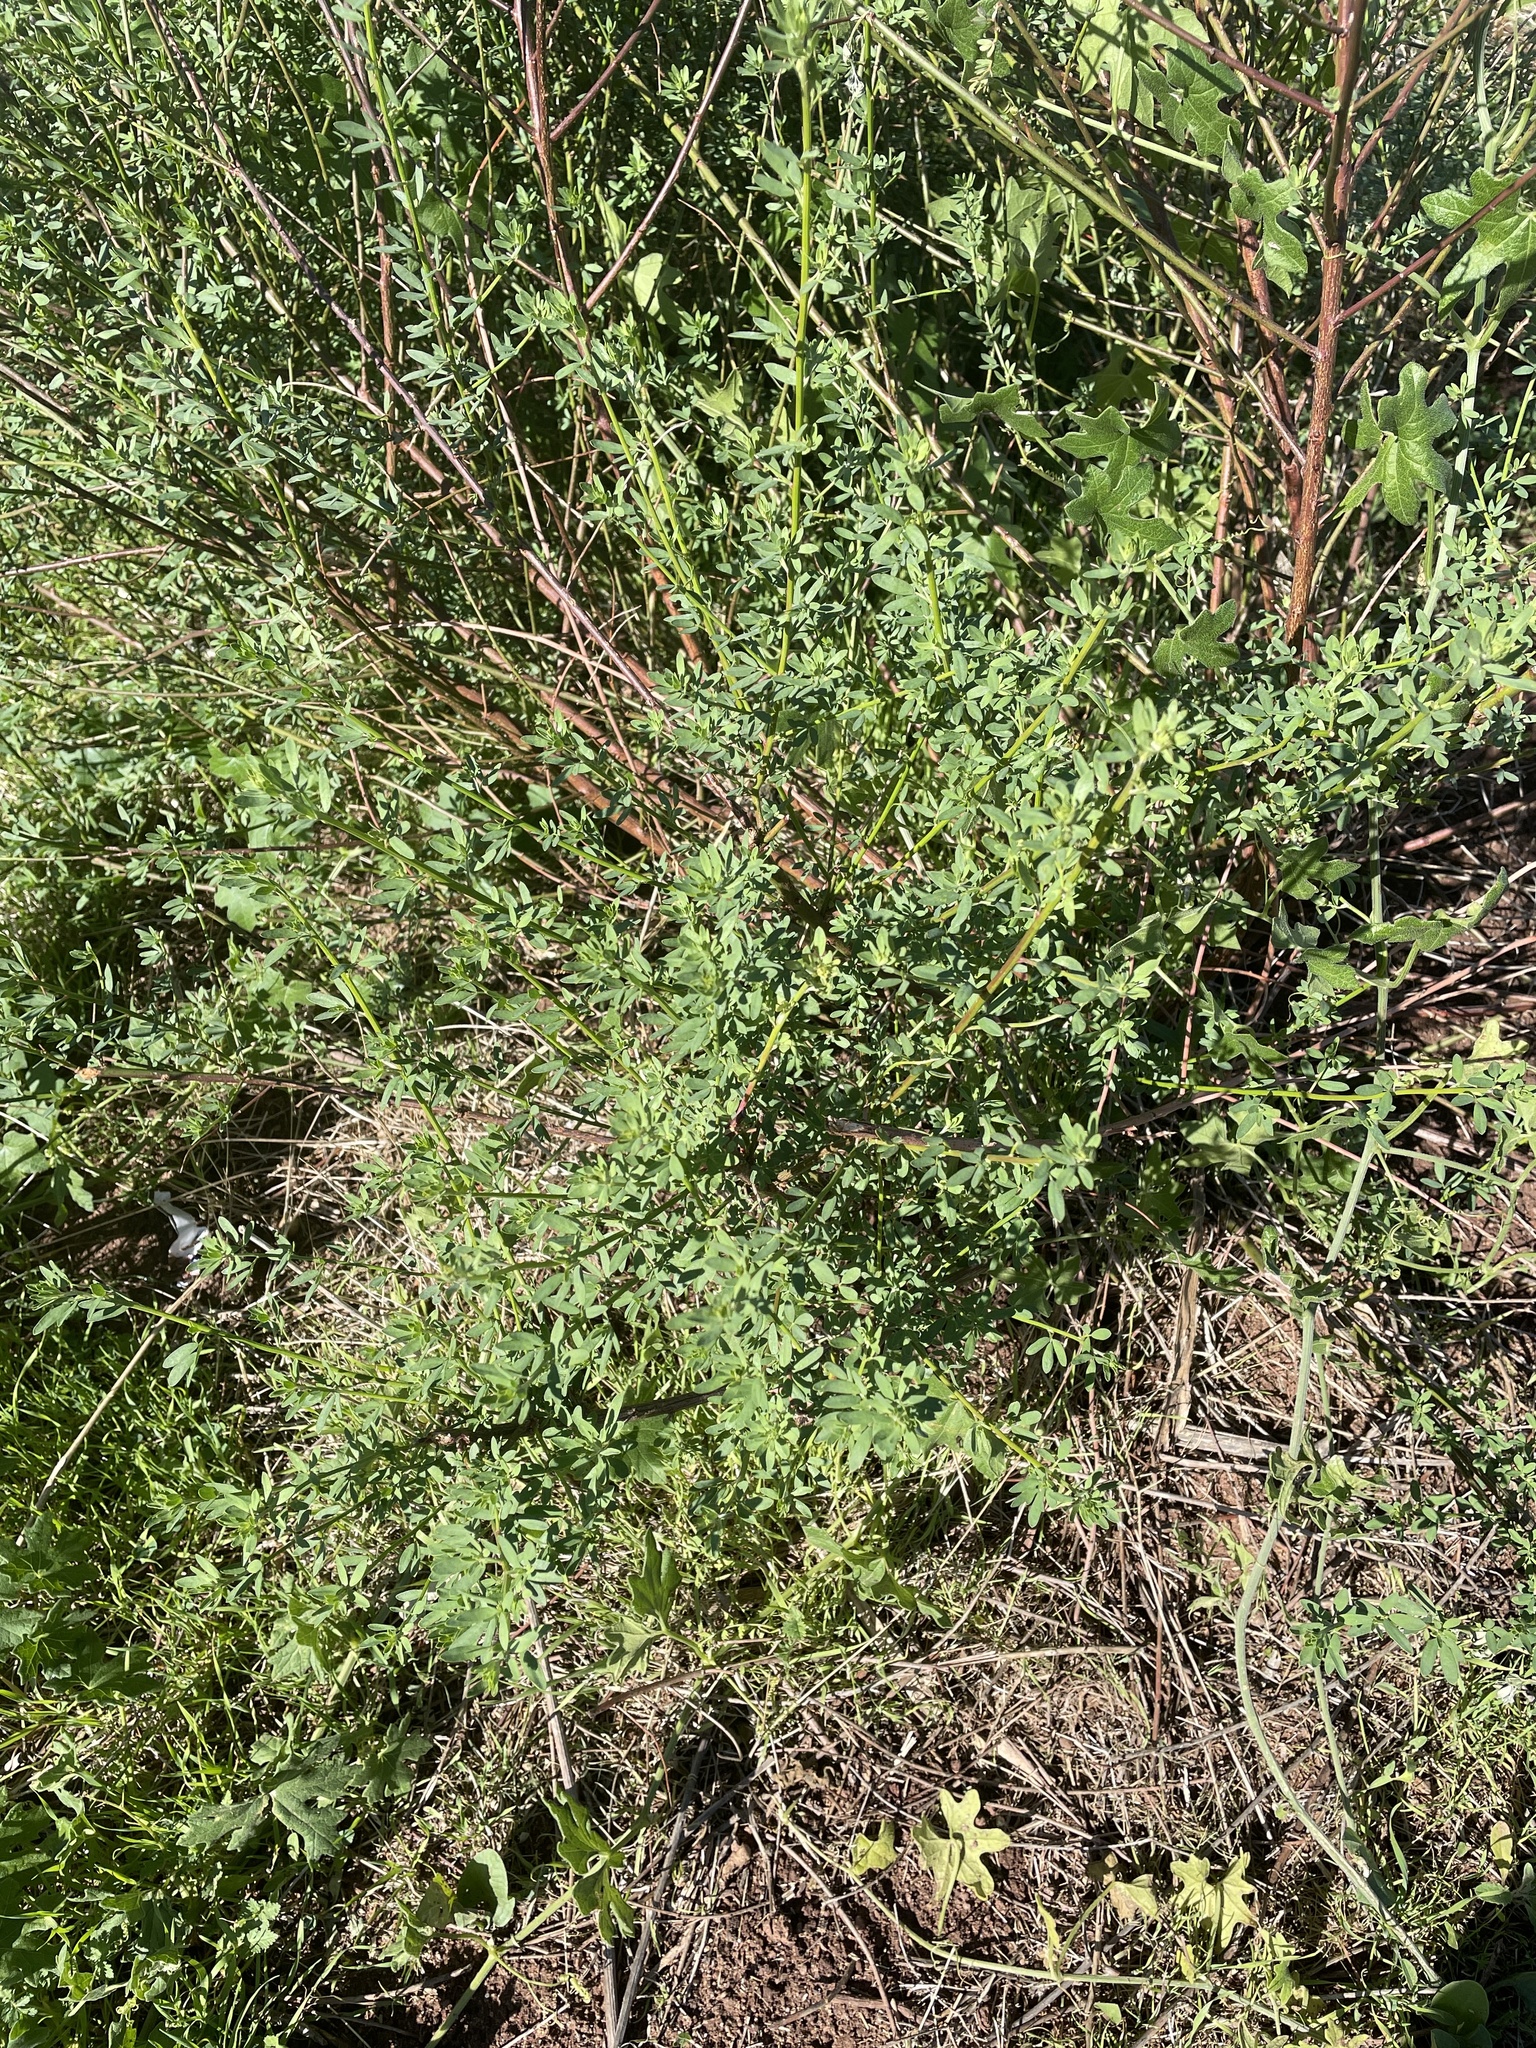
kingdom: Plantae
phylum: Tracheophyta
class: Magnoliopsida
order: Fabales
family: Fabaceae
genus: Acmispon
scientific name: Acmispon glaber
